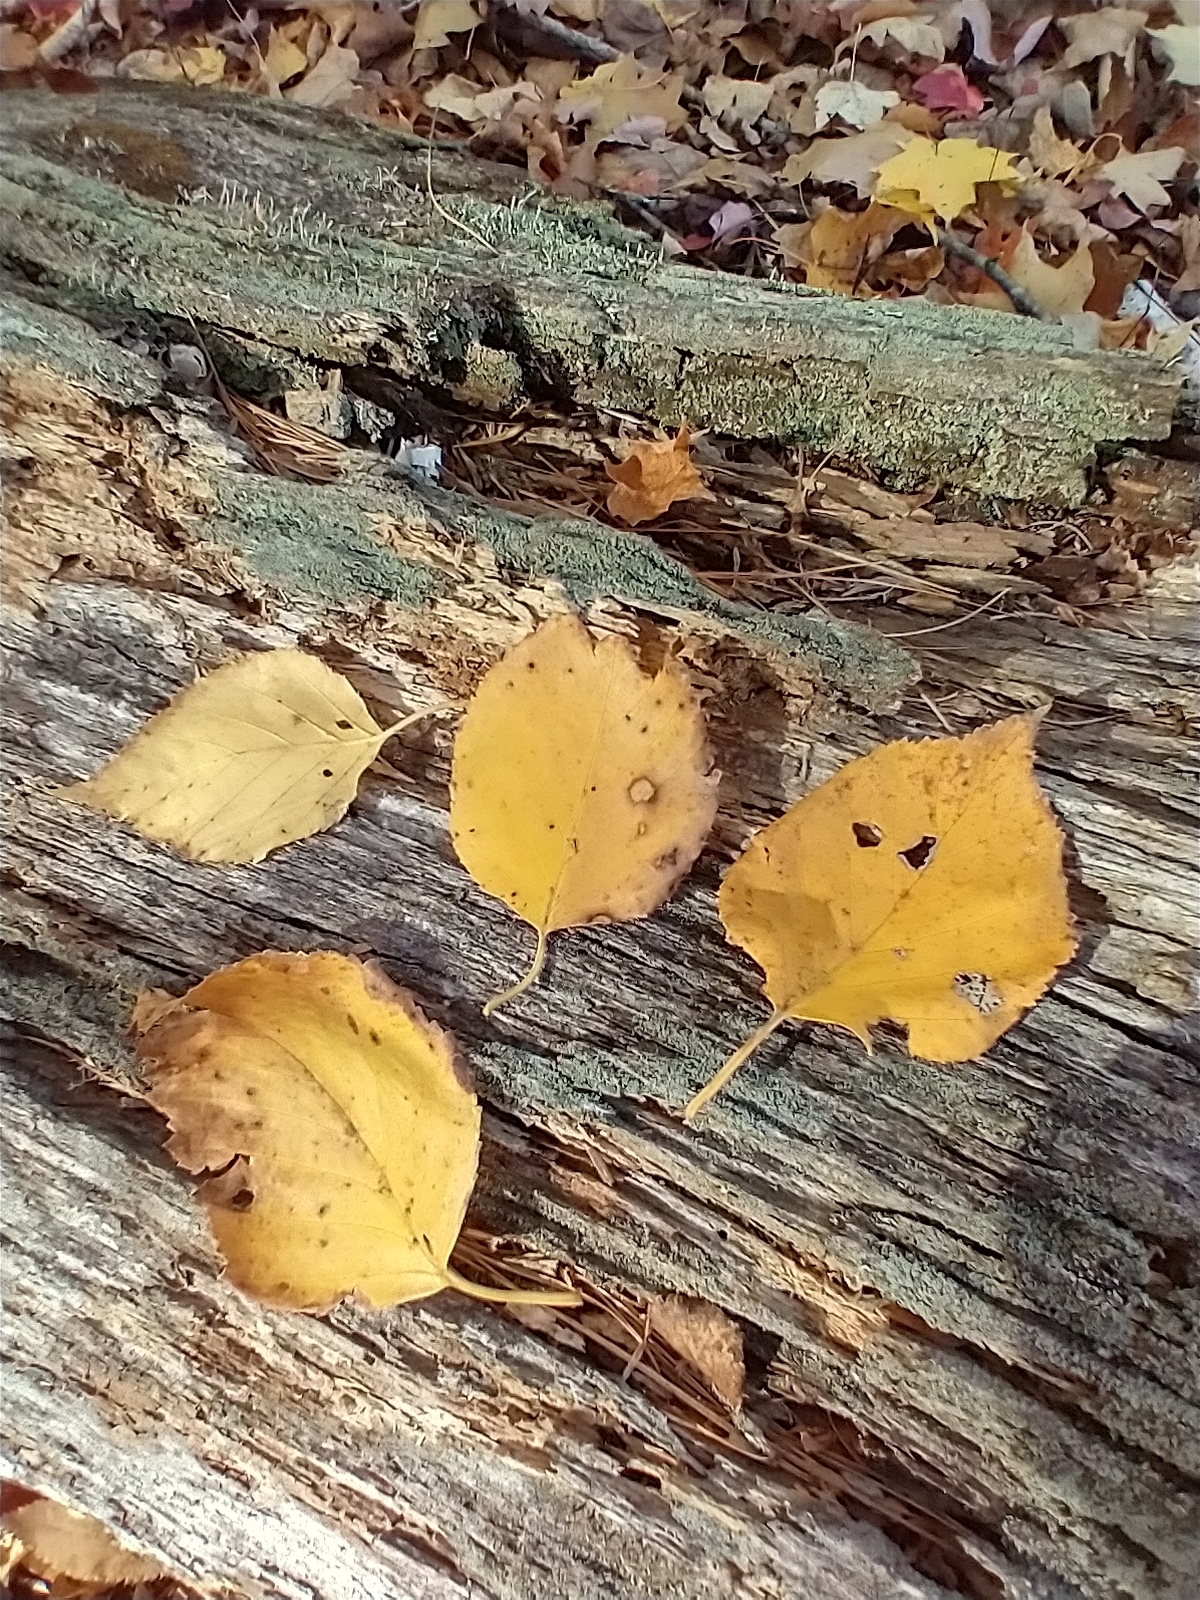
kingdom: Plantae
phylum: Tracheophyta
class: Magnoliopsida
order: Fagales
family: Betulaceae
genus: Betula
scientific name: Betula papyrifera
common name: Paper birch
